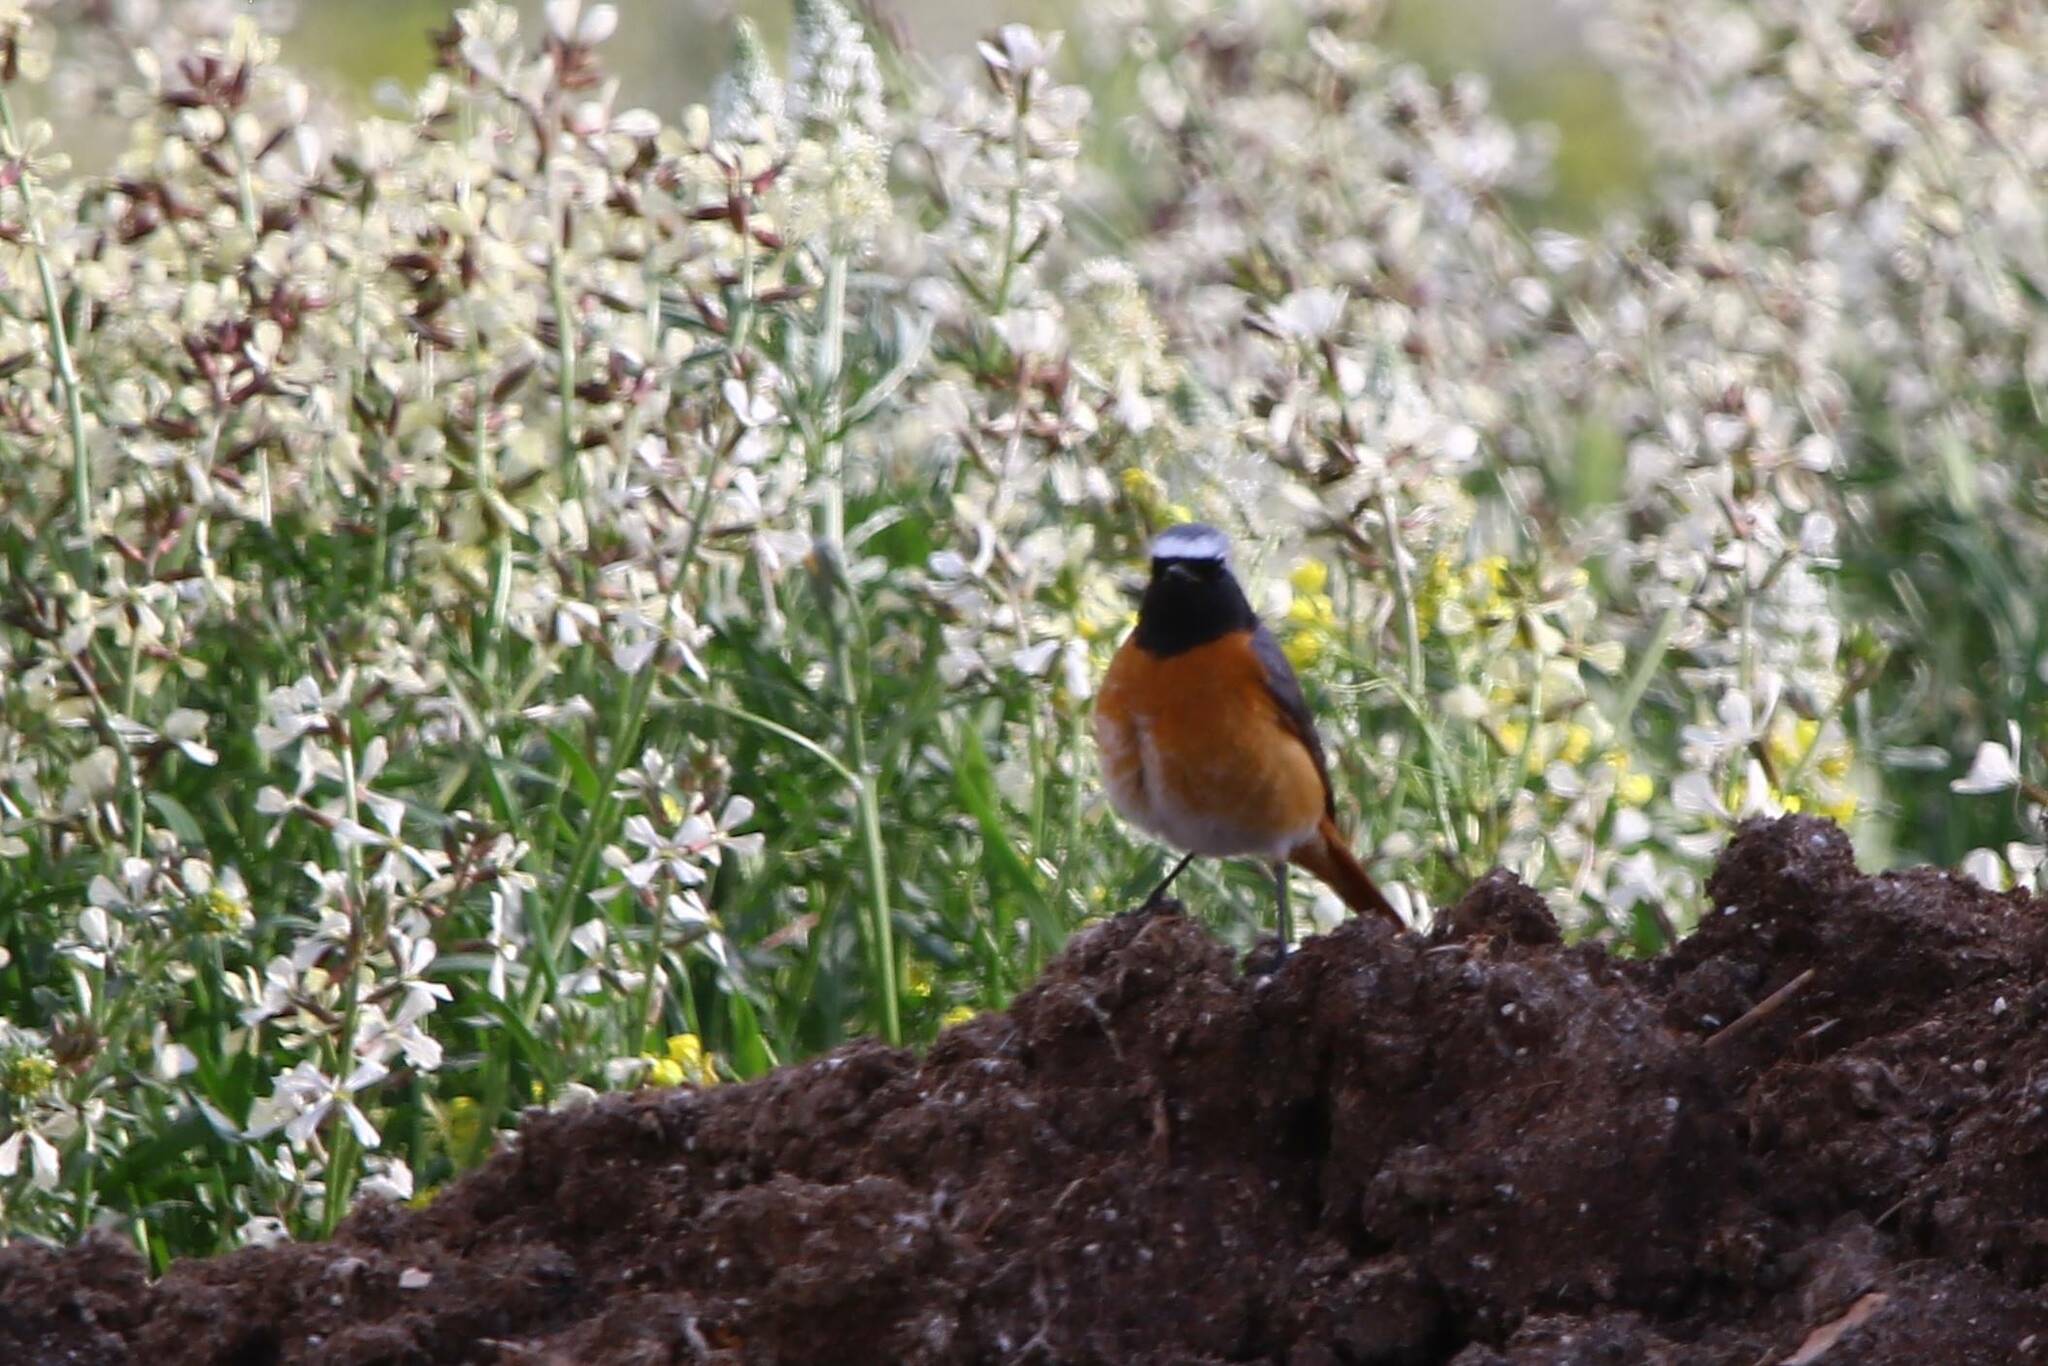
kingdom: Animalia
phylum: Chordata
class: Aves
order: Passeriformes
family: Muscicapidae
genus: Phoenicurus
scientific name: Phoenicurus phoenicurus
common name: Common redstart
